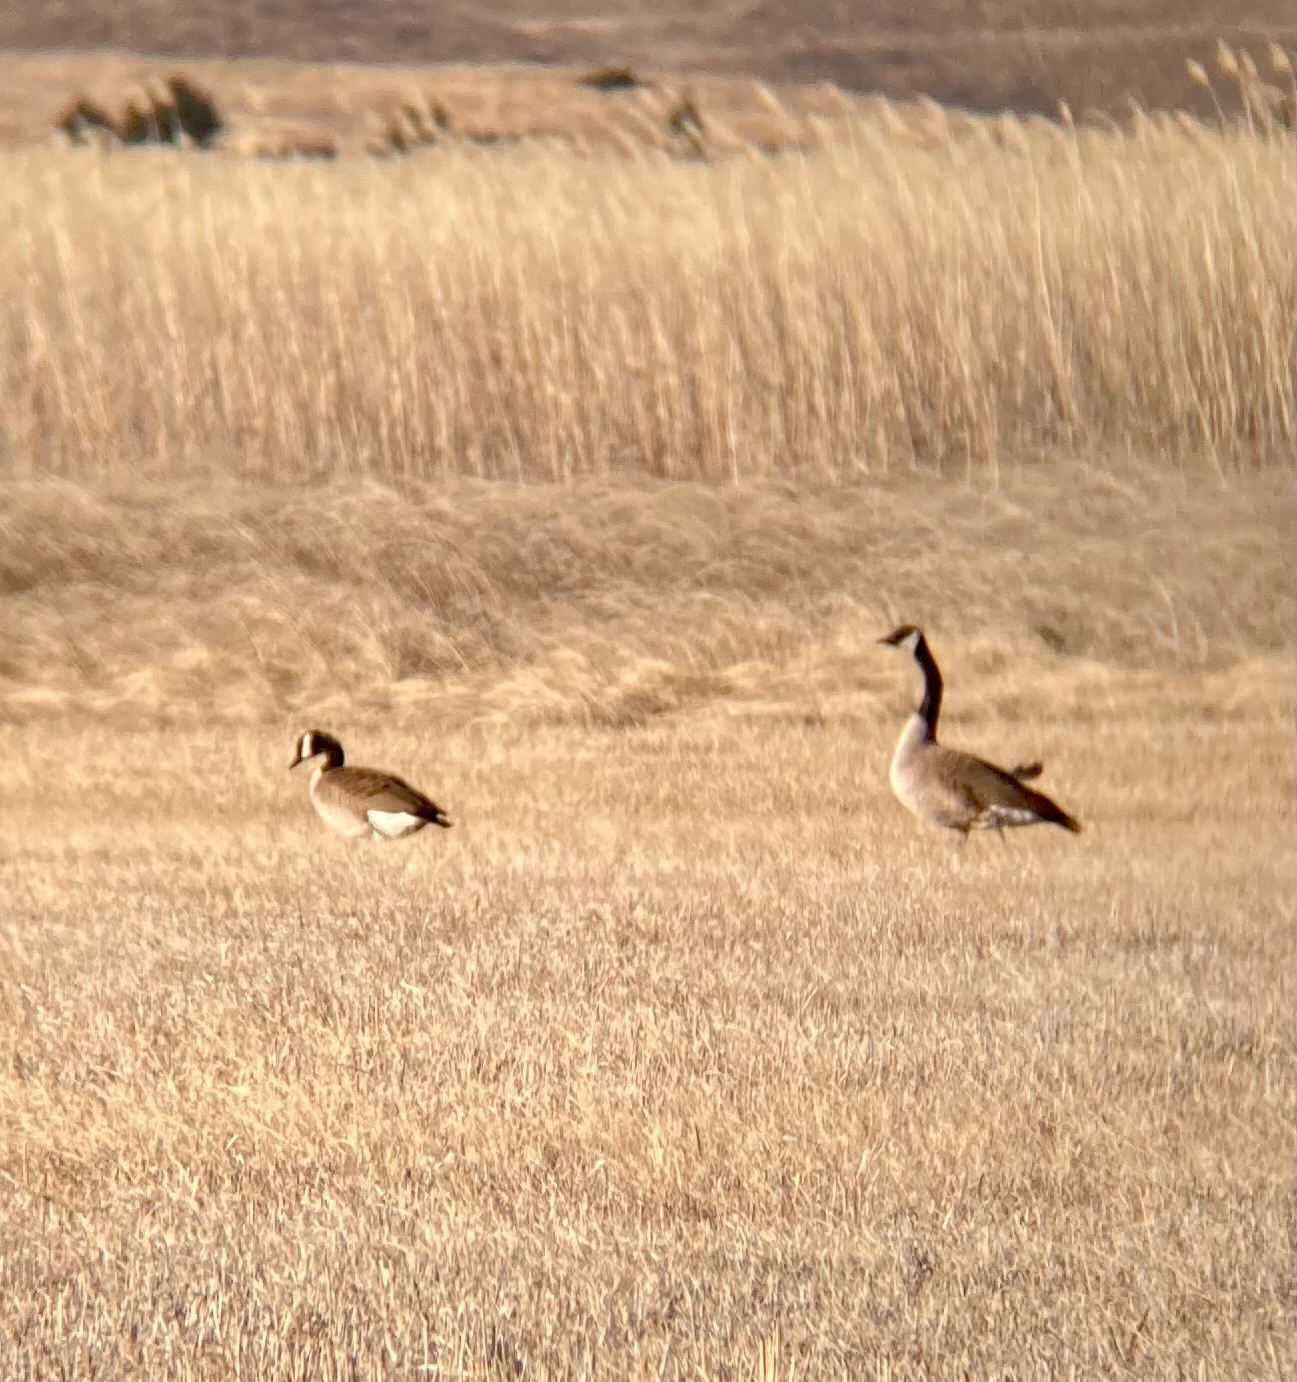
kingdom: Animalia
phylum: Chordata
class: Aves
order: Anseriformes
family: Anatidae
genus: Branta
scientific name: Branta canadensis
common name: Canada goose
